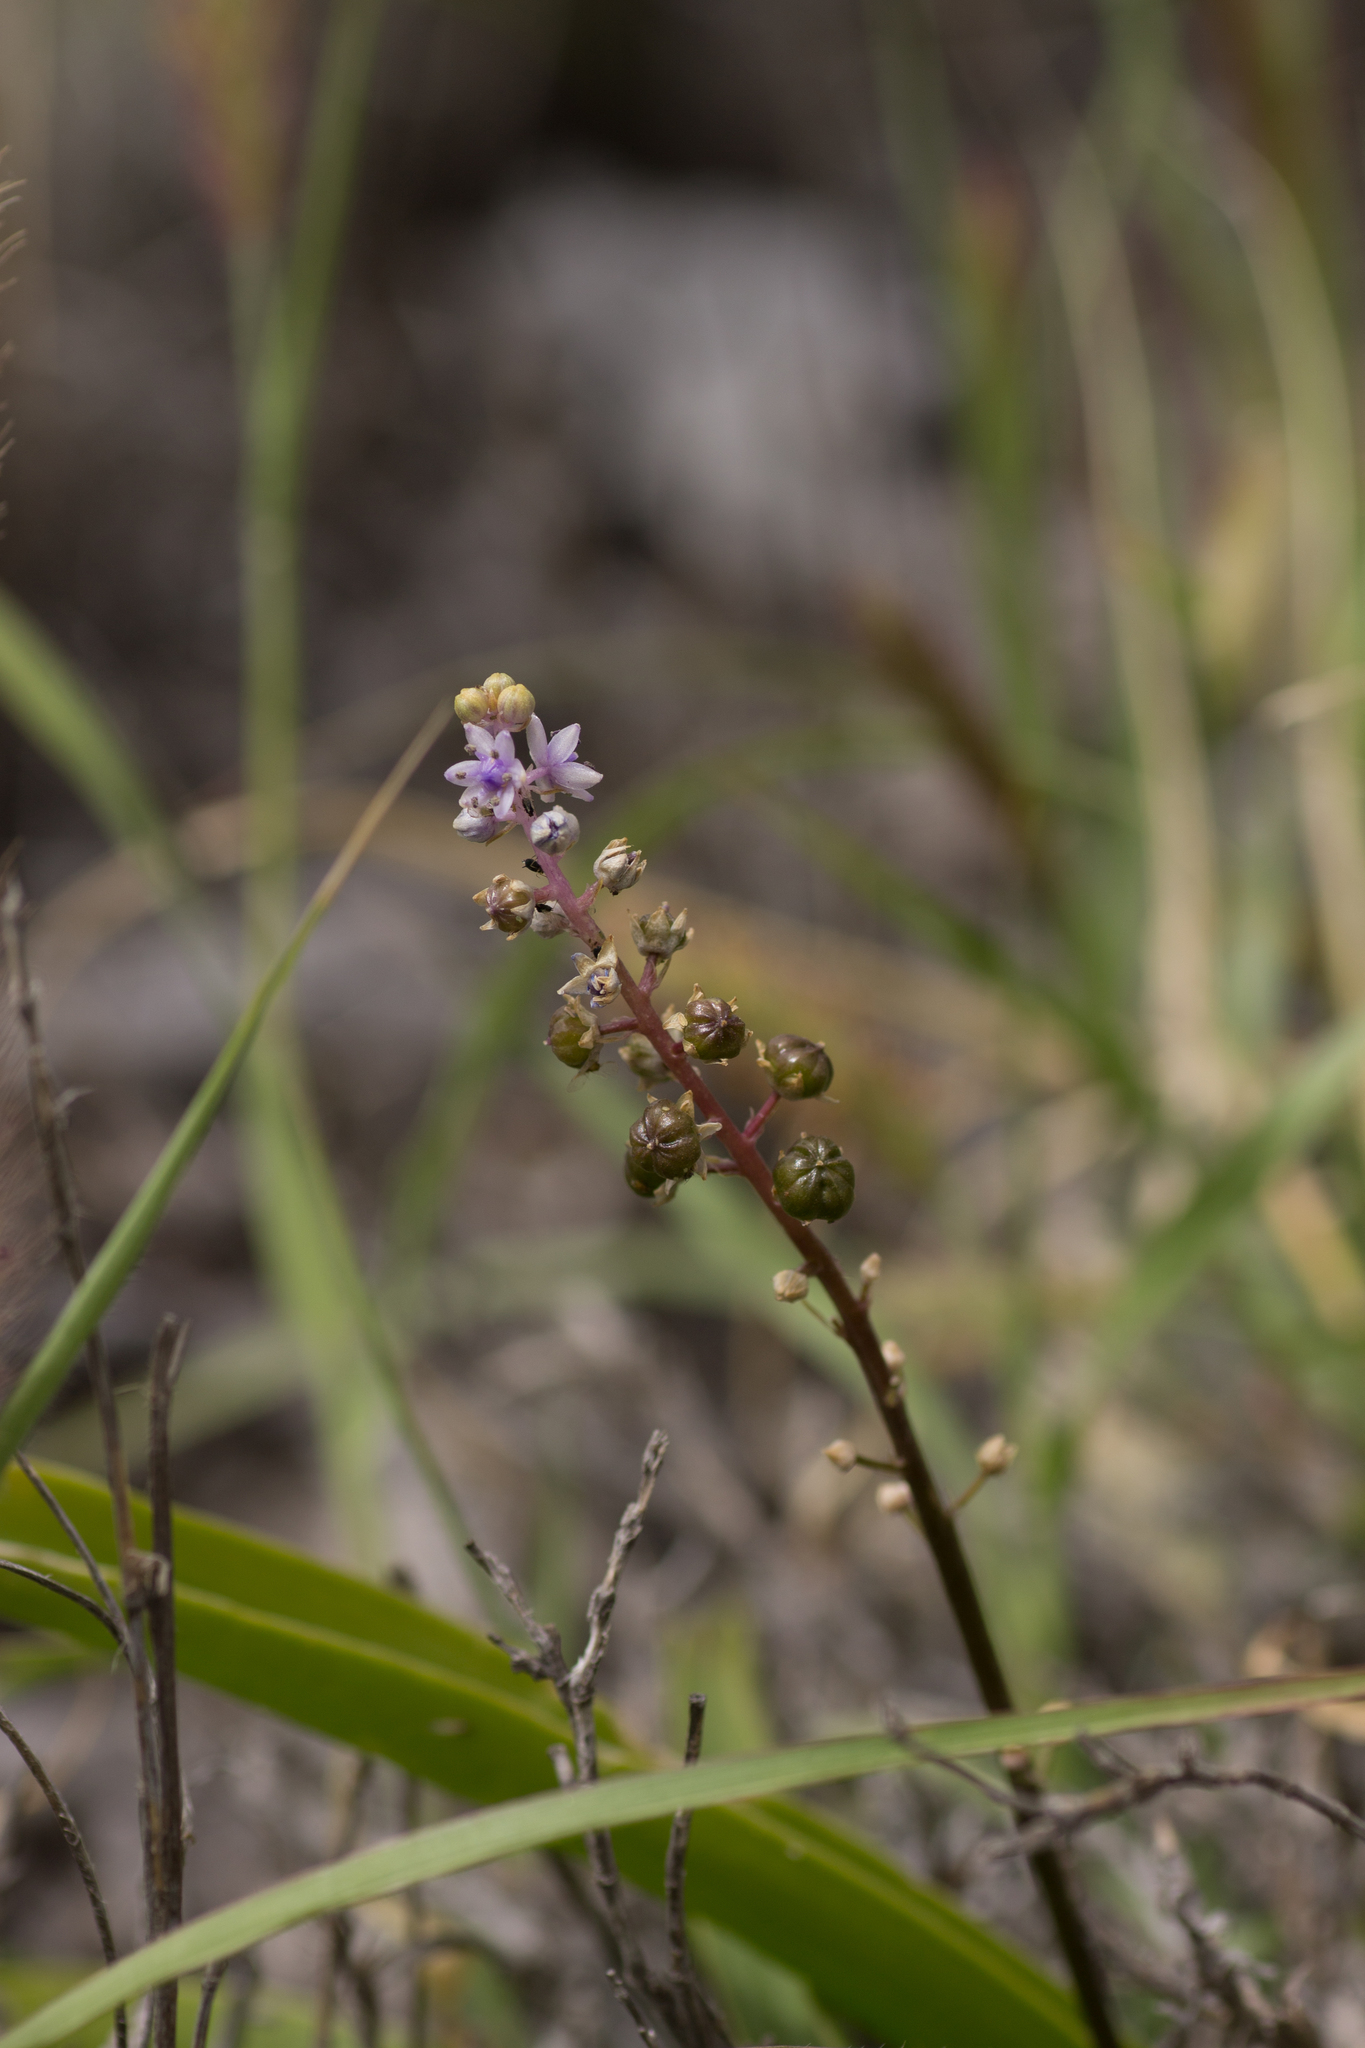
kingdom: Plantae
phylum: Tracheophyta
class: Liliopsida
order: Asparagales
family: Asparagaceae
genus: Scilla
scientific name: Scilla haemorrhoidalis
